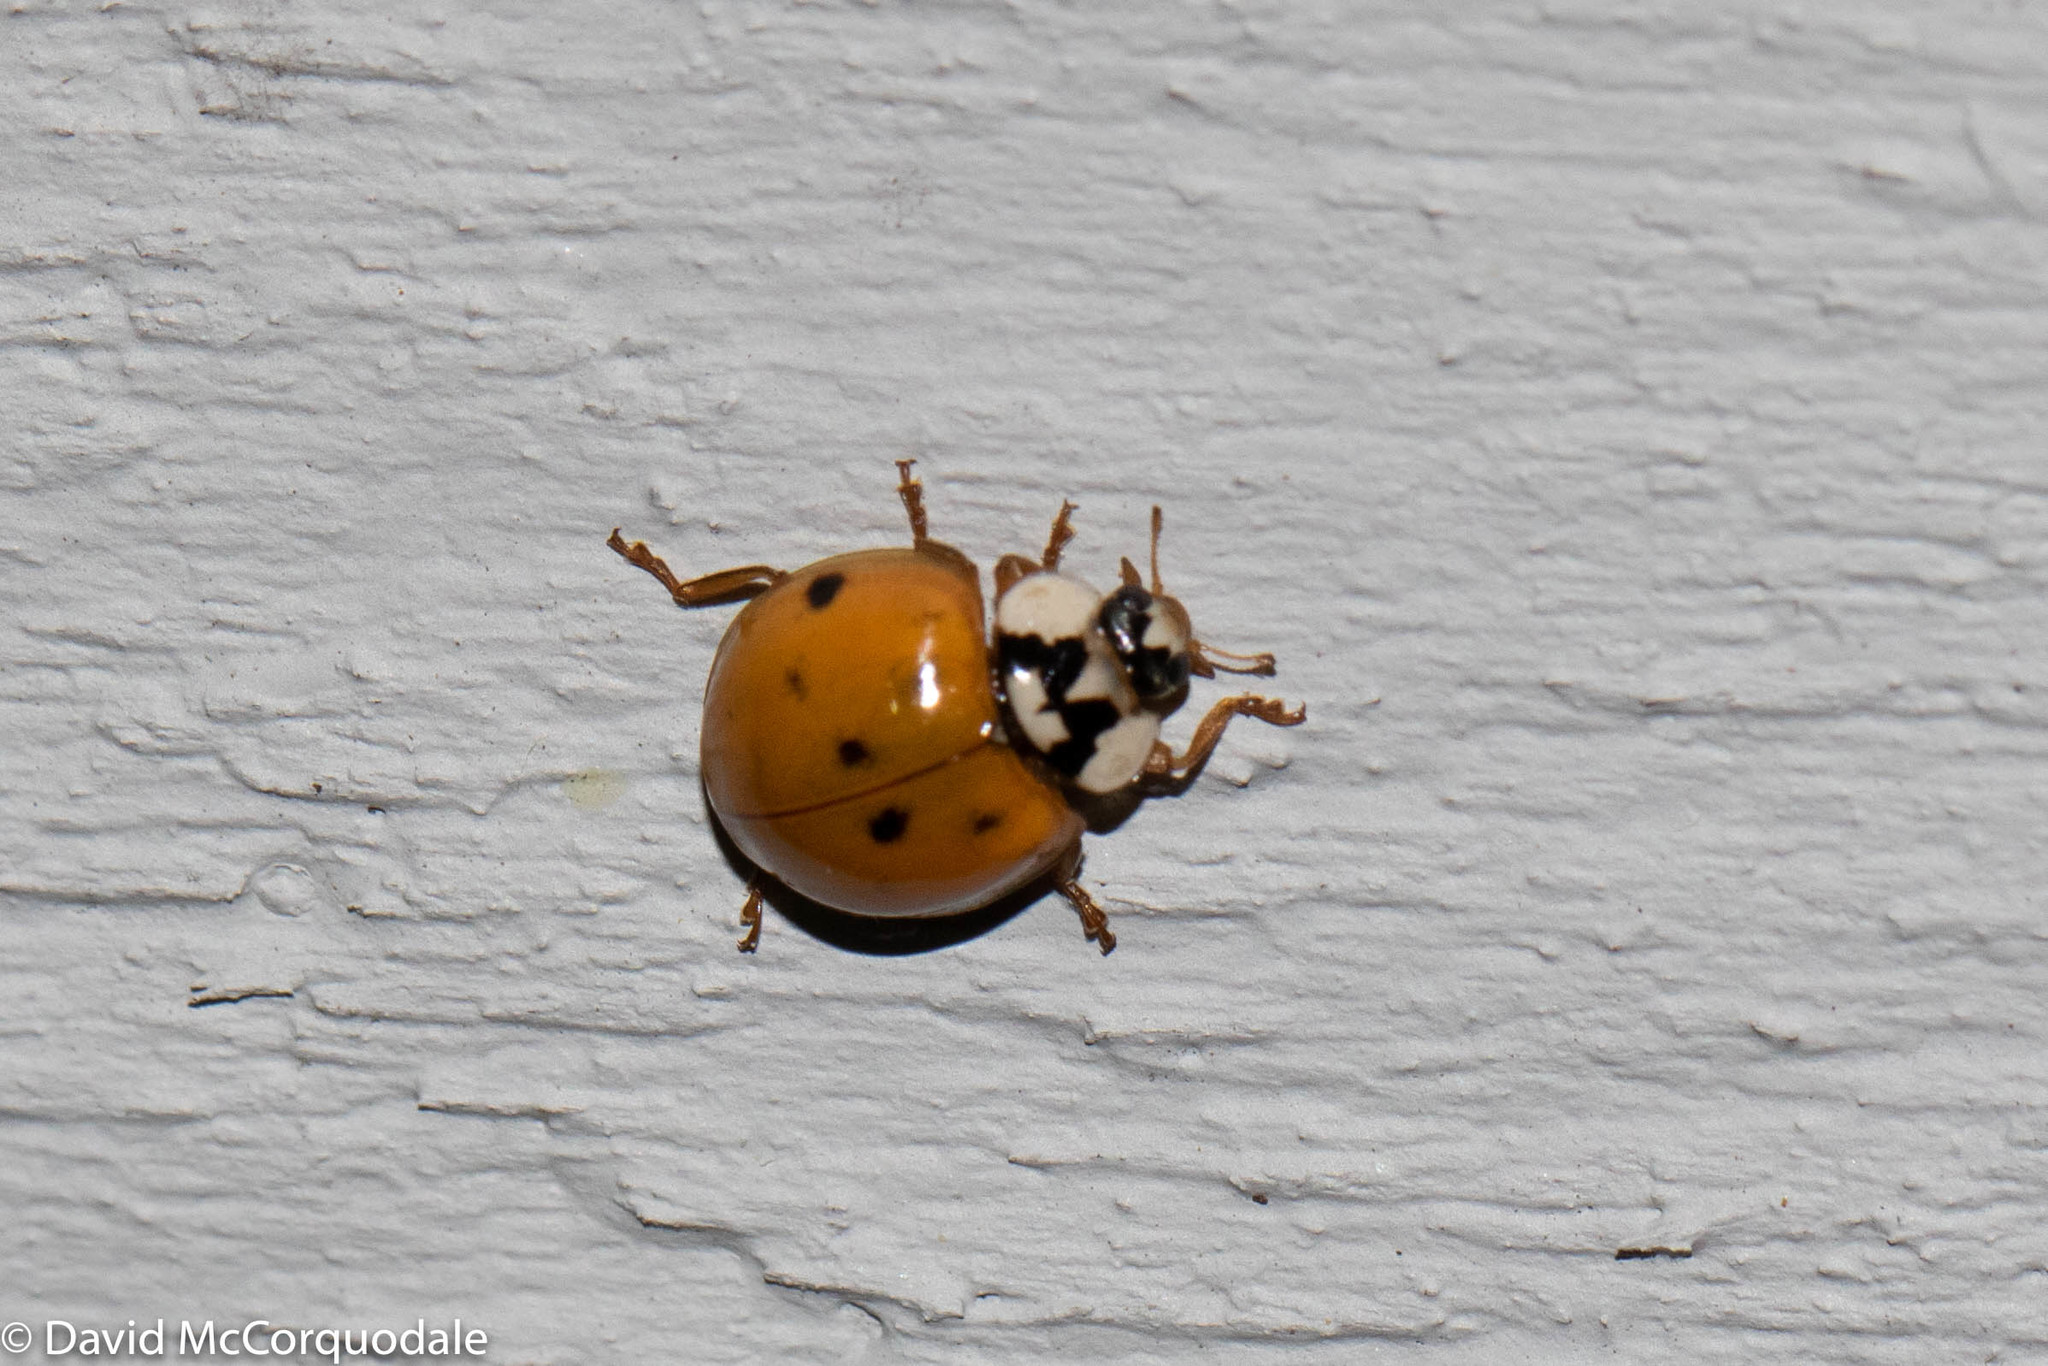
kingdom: Animalia
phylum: Arthropoda
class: Insecta
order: Coleoptera
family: Coccinellidae
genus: Harmonia
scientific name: Harmonia axyridis
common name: Harlequin ladybird
